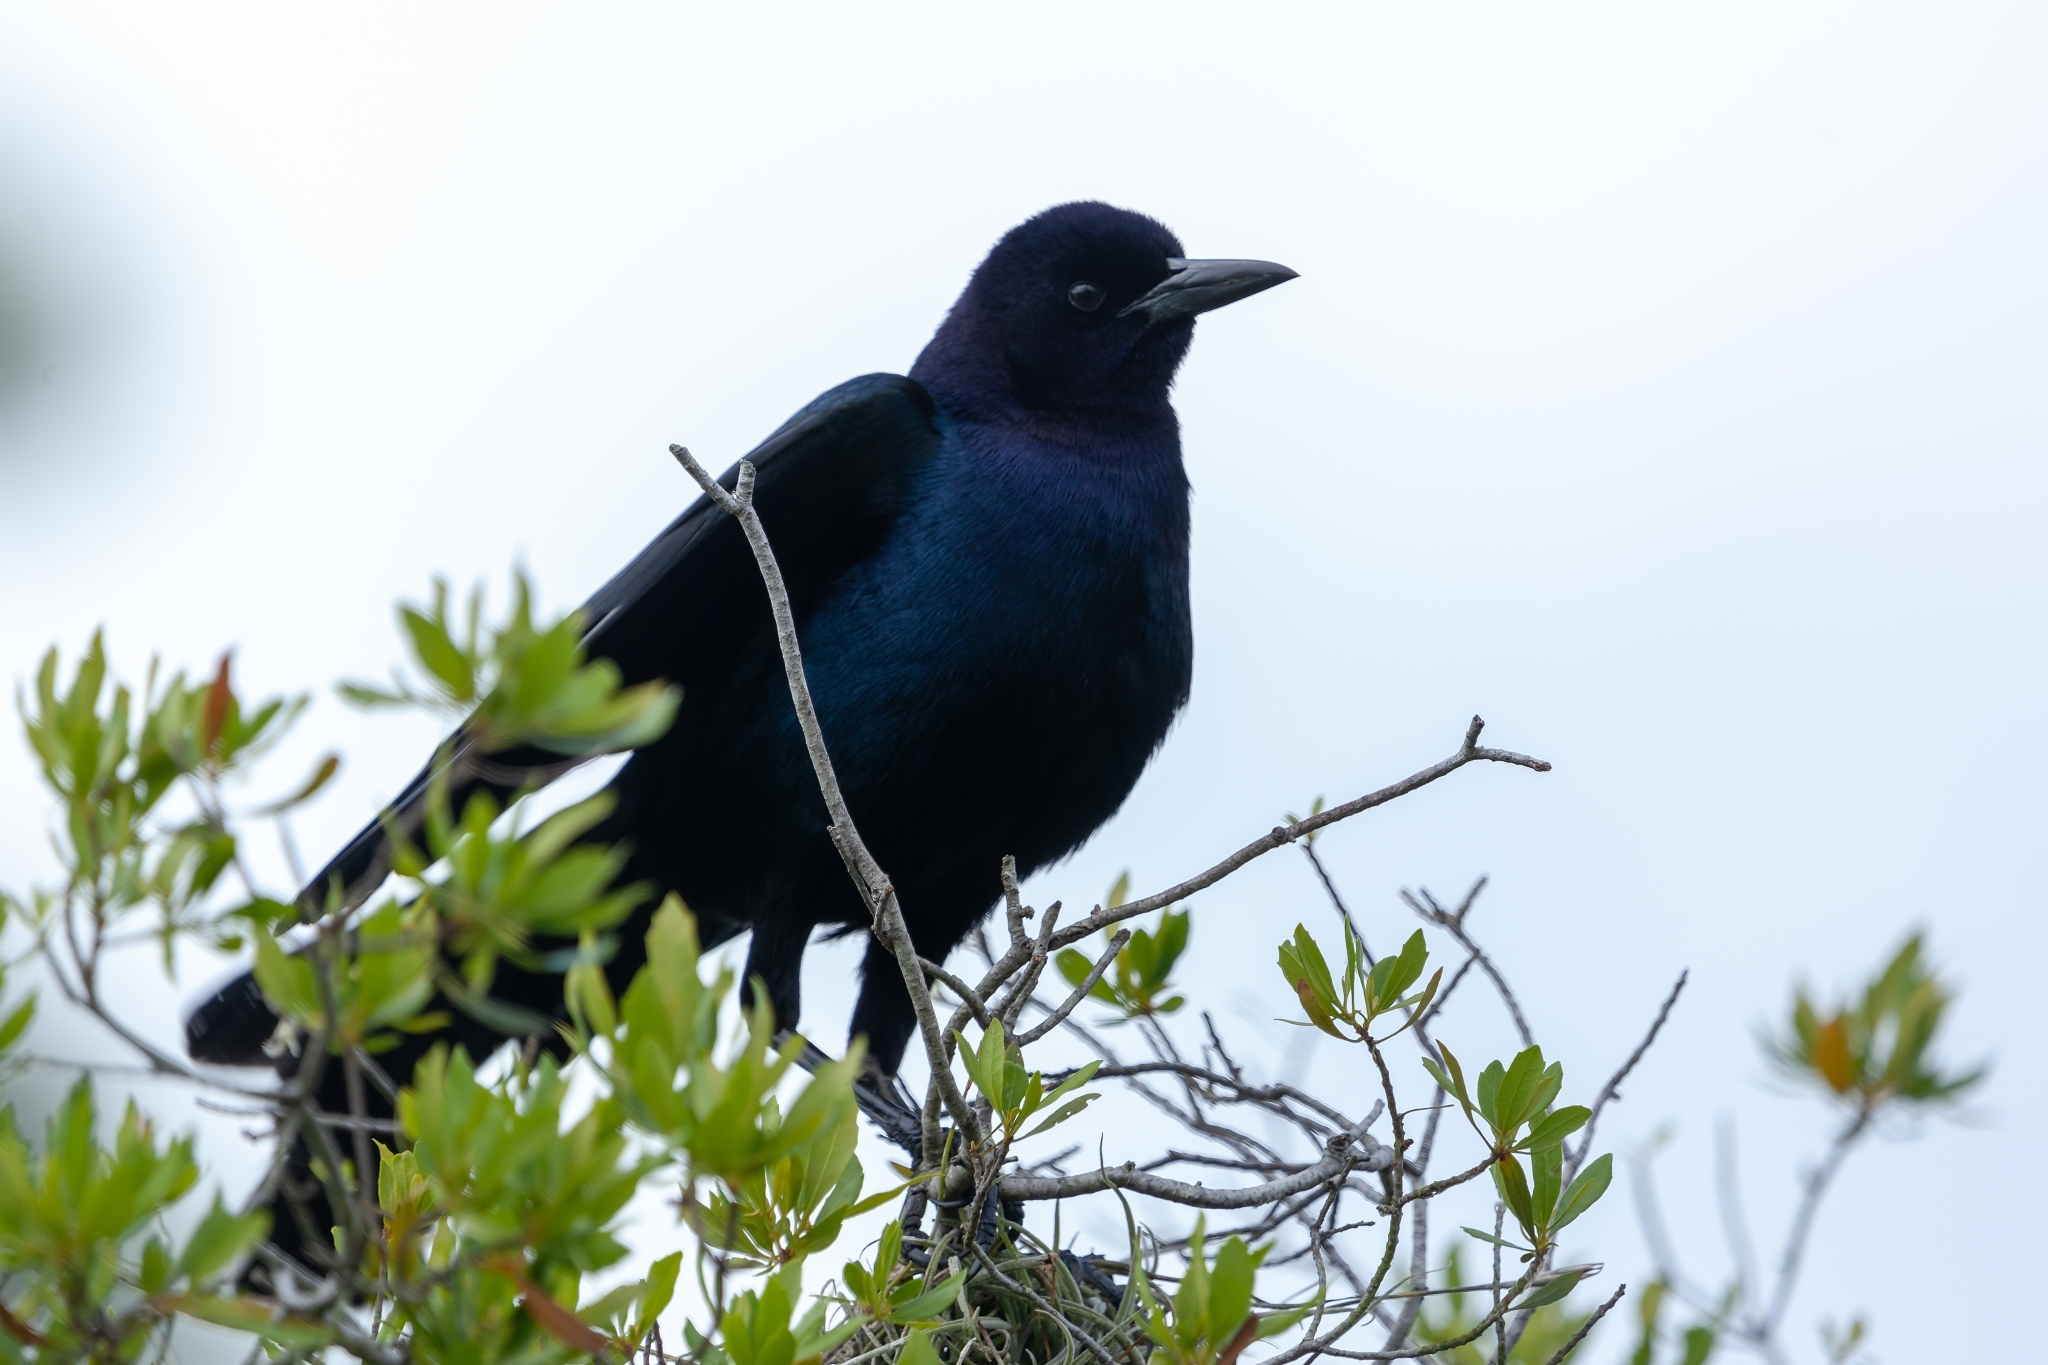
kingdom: Animalia
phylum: Chordata
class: Aves
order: Passeriformes
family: Icteridae
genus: Quiscalus
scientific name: Quiscalus major
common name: Boat-tailed grackle
